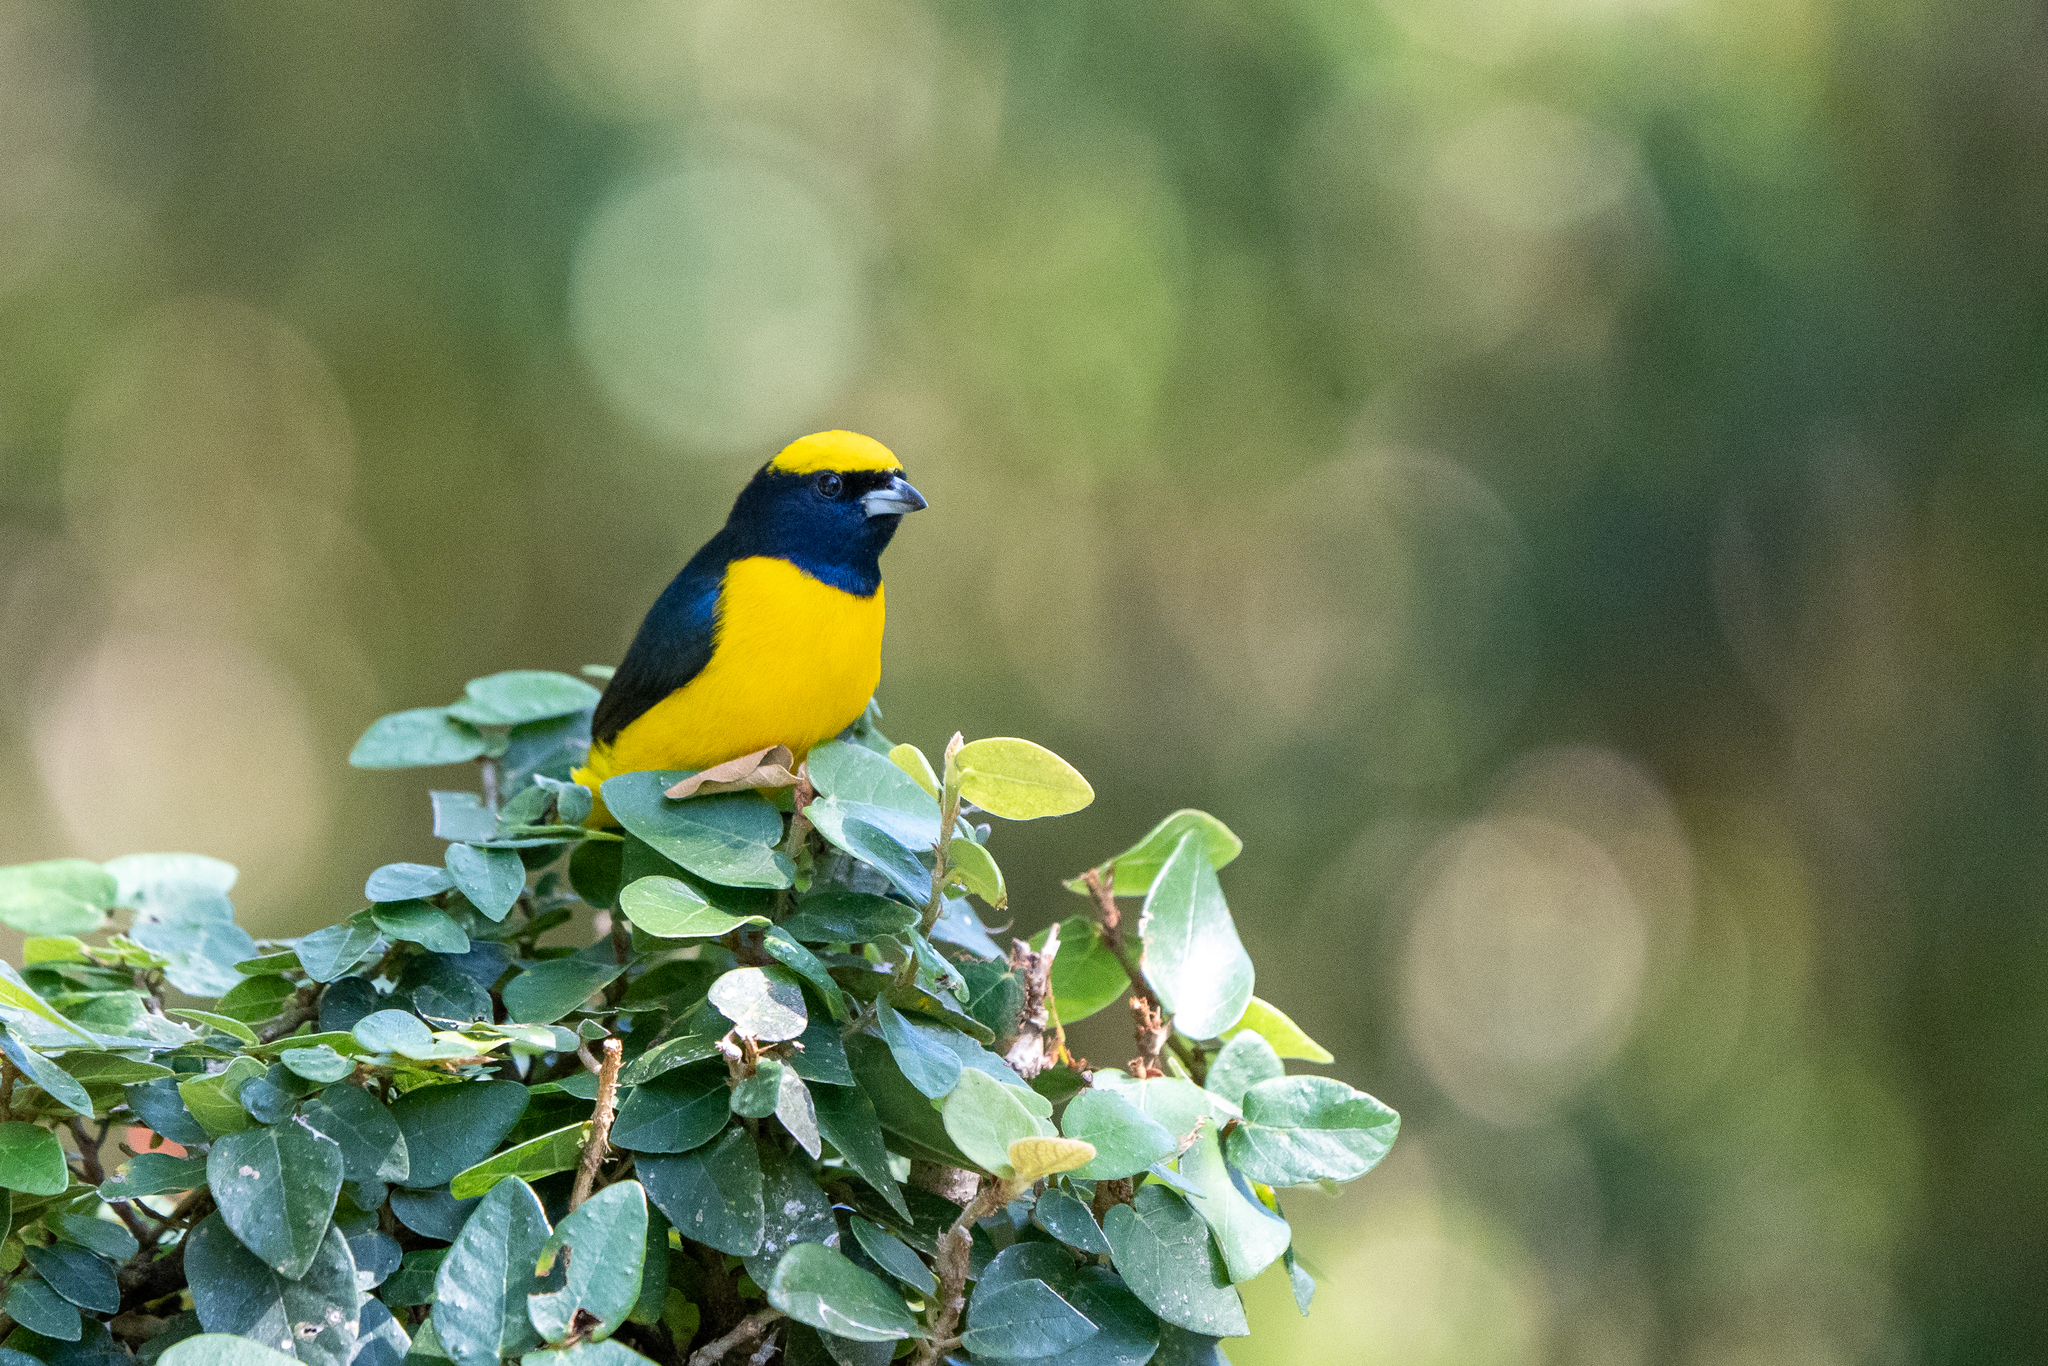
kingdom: Animalia
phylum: Chordata
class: Aves
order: Passeriformes
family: Fringillidae
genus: Euphonia
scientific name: Euphonia luteicapilla
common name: Yellow-crowned euphonia
